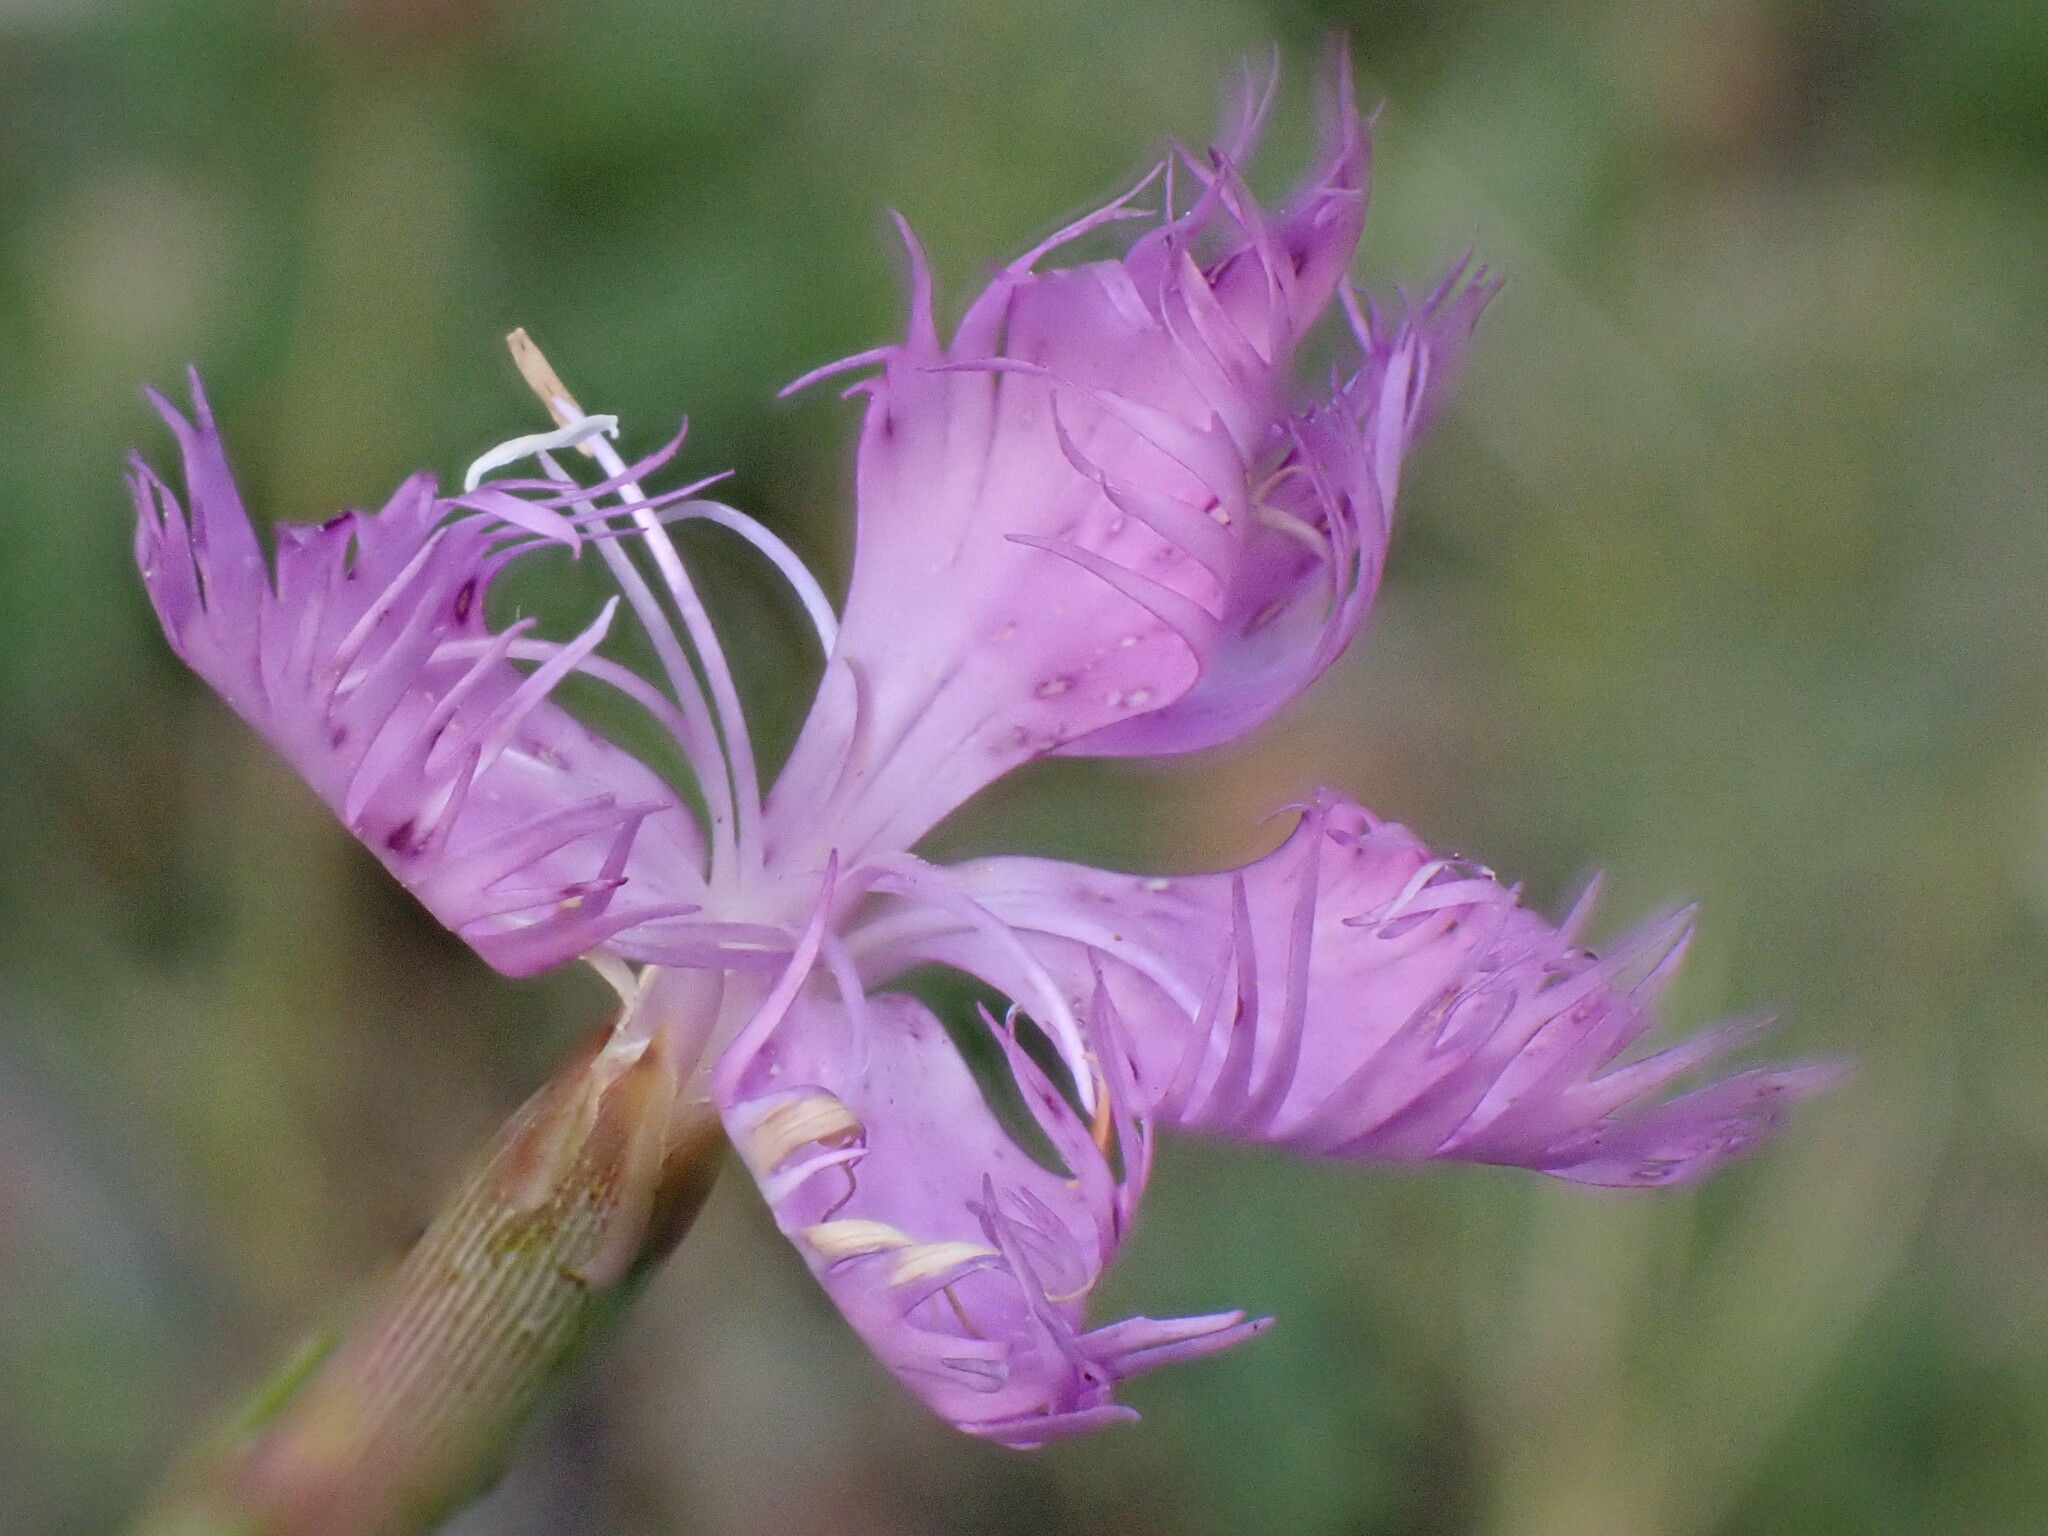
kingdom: Plantae
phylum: Tracheophyta
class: Magnoliopsida
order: Caryophyllales
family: Caryophyllaceae
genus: Dianthus
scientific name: Dianthus hyssopifolius
